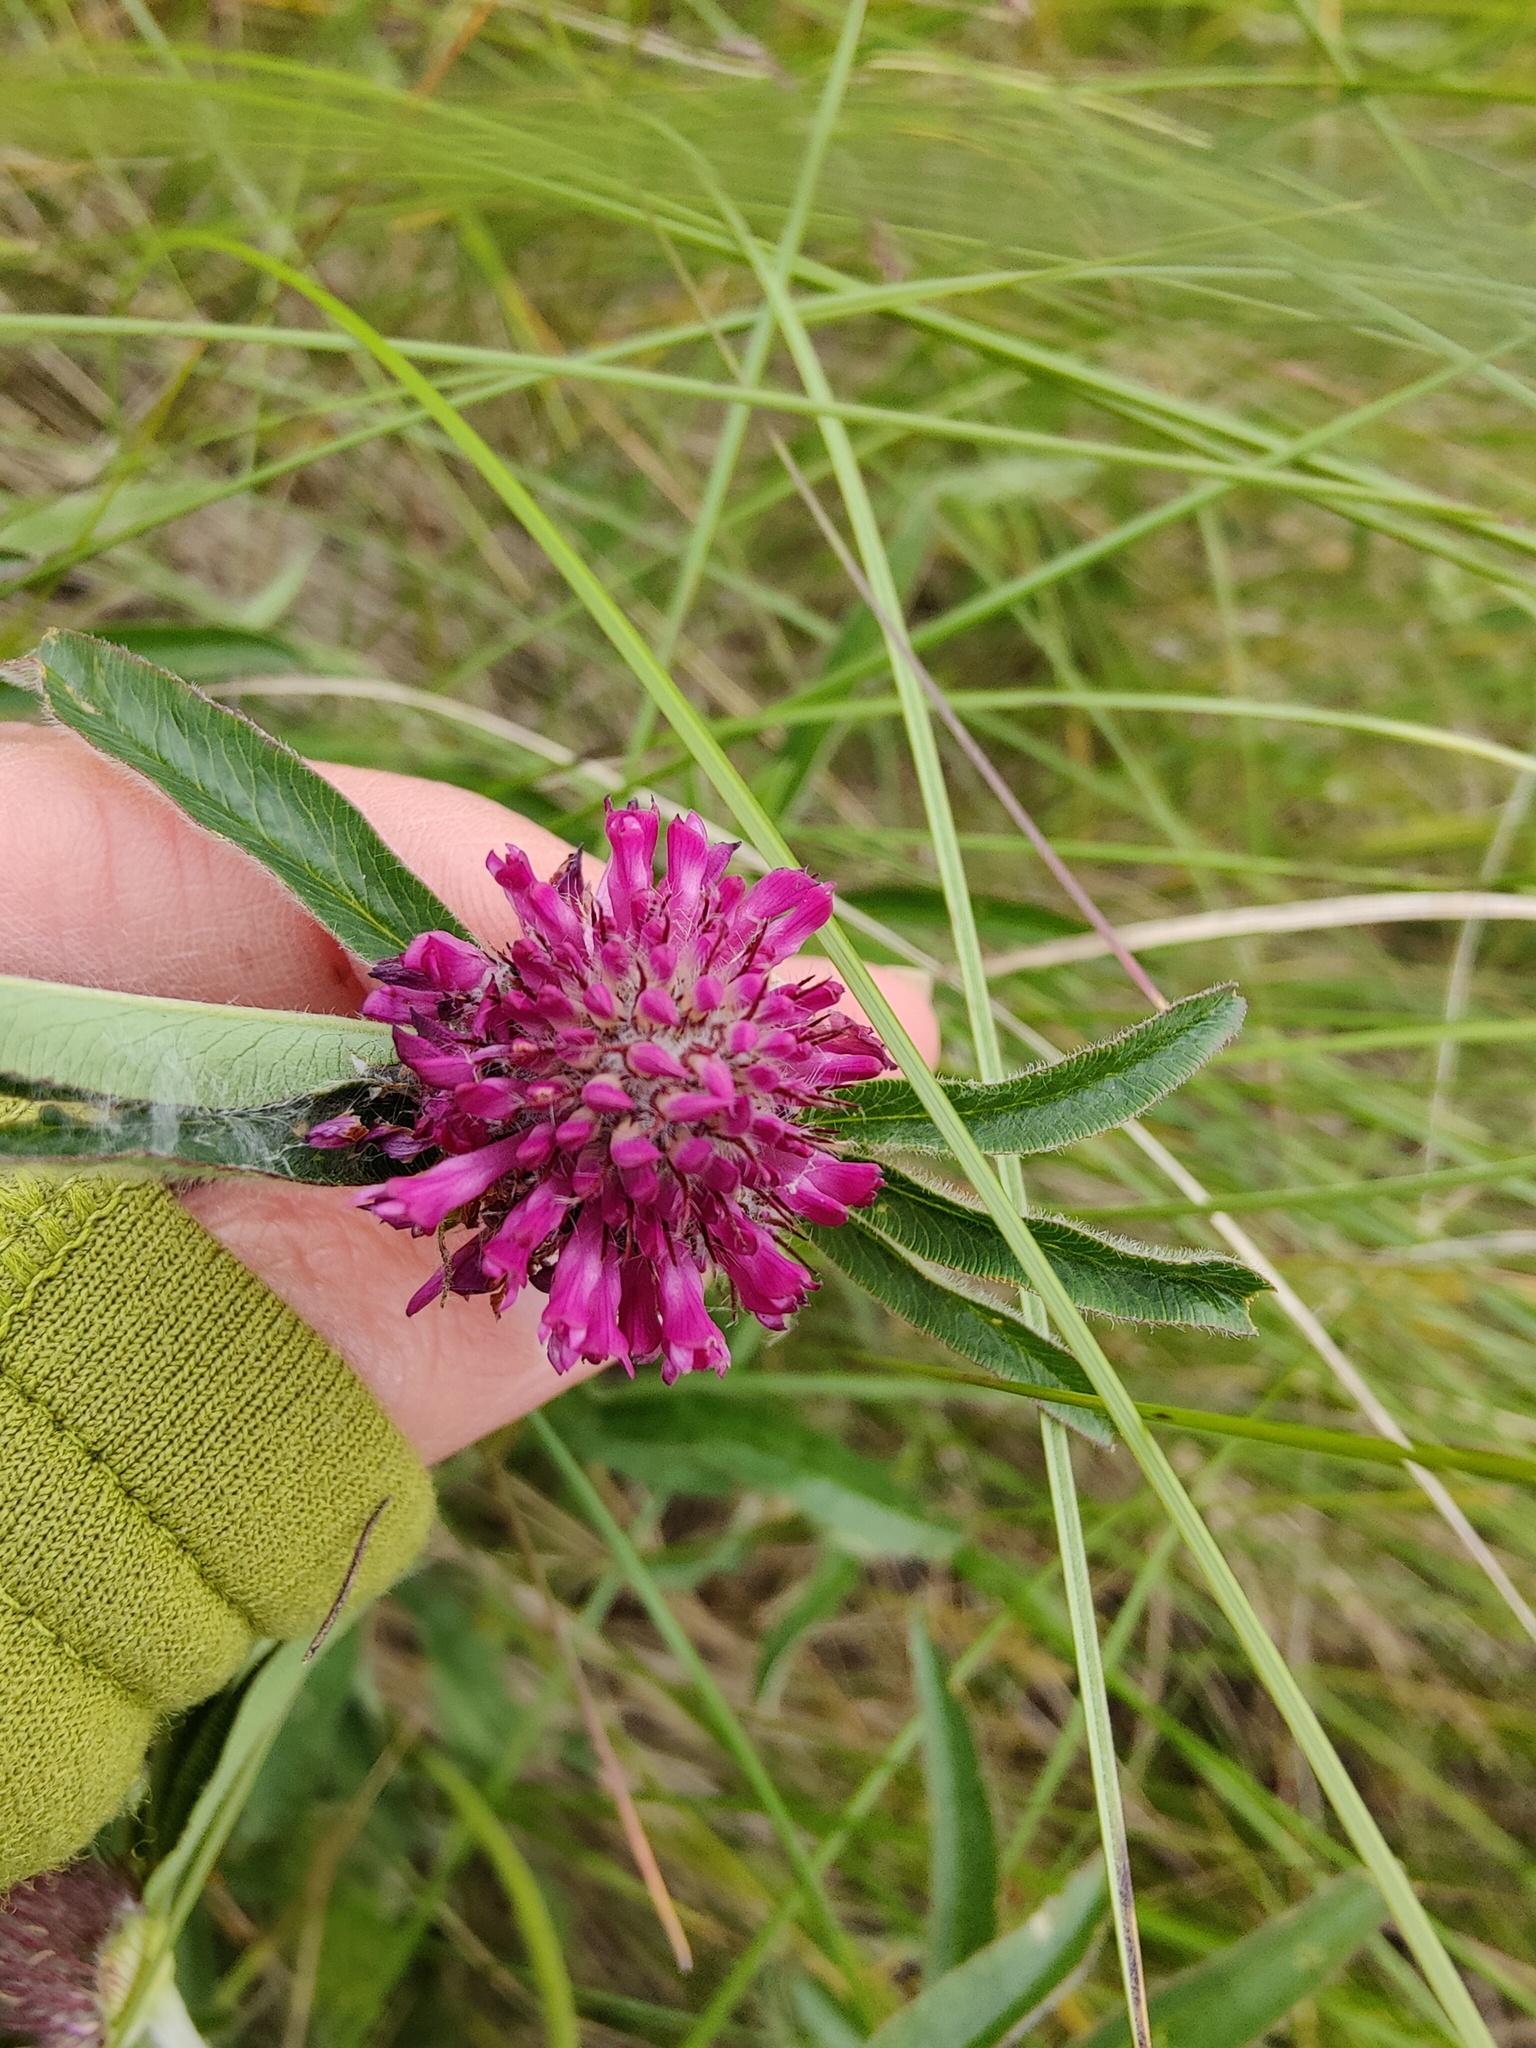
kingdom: Plantae
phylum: Tracheophyta
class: Magnoliopsida
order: Fabales
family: Fabaceae
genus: Trifolium
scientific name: Trifolium alpestre
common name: Owl-head clover
